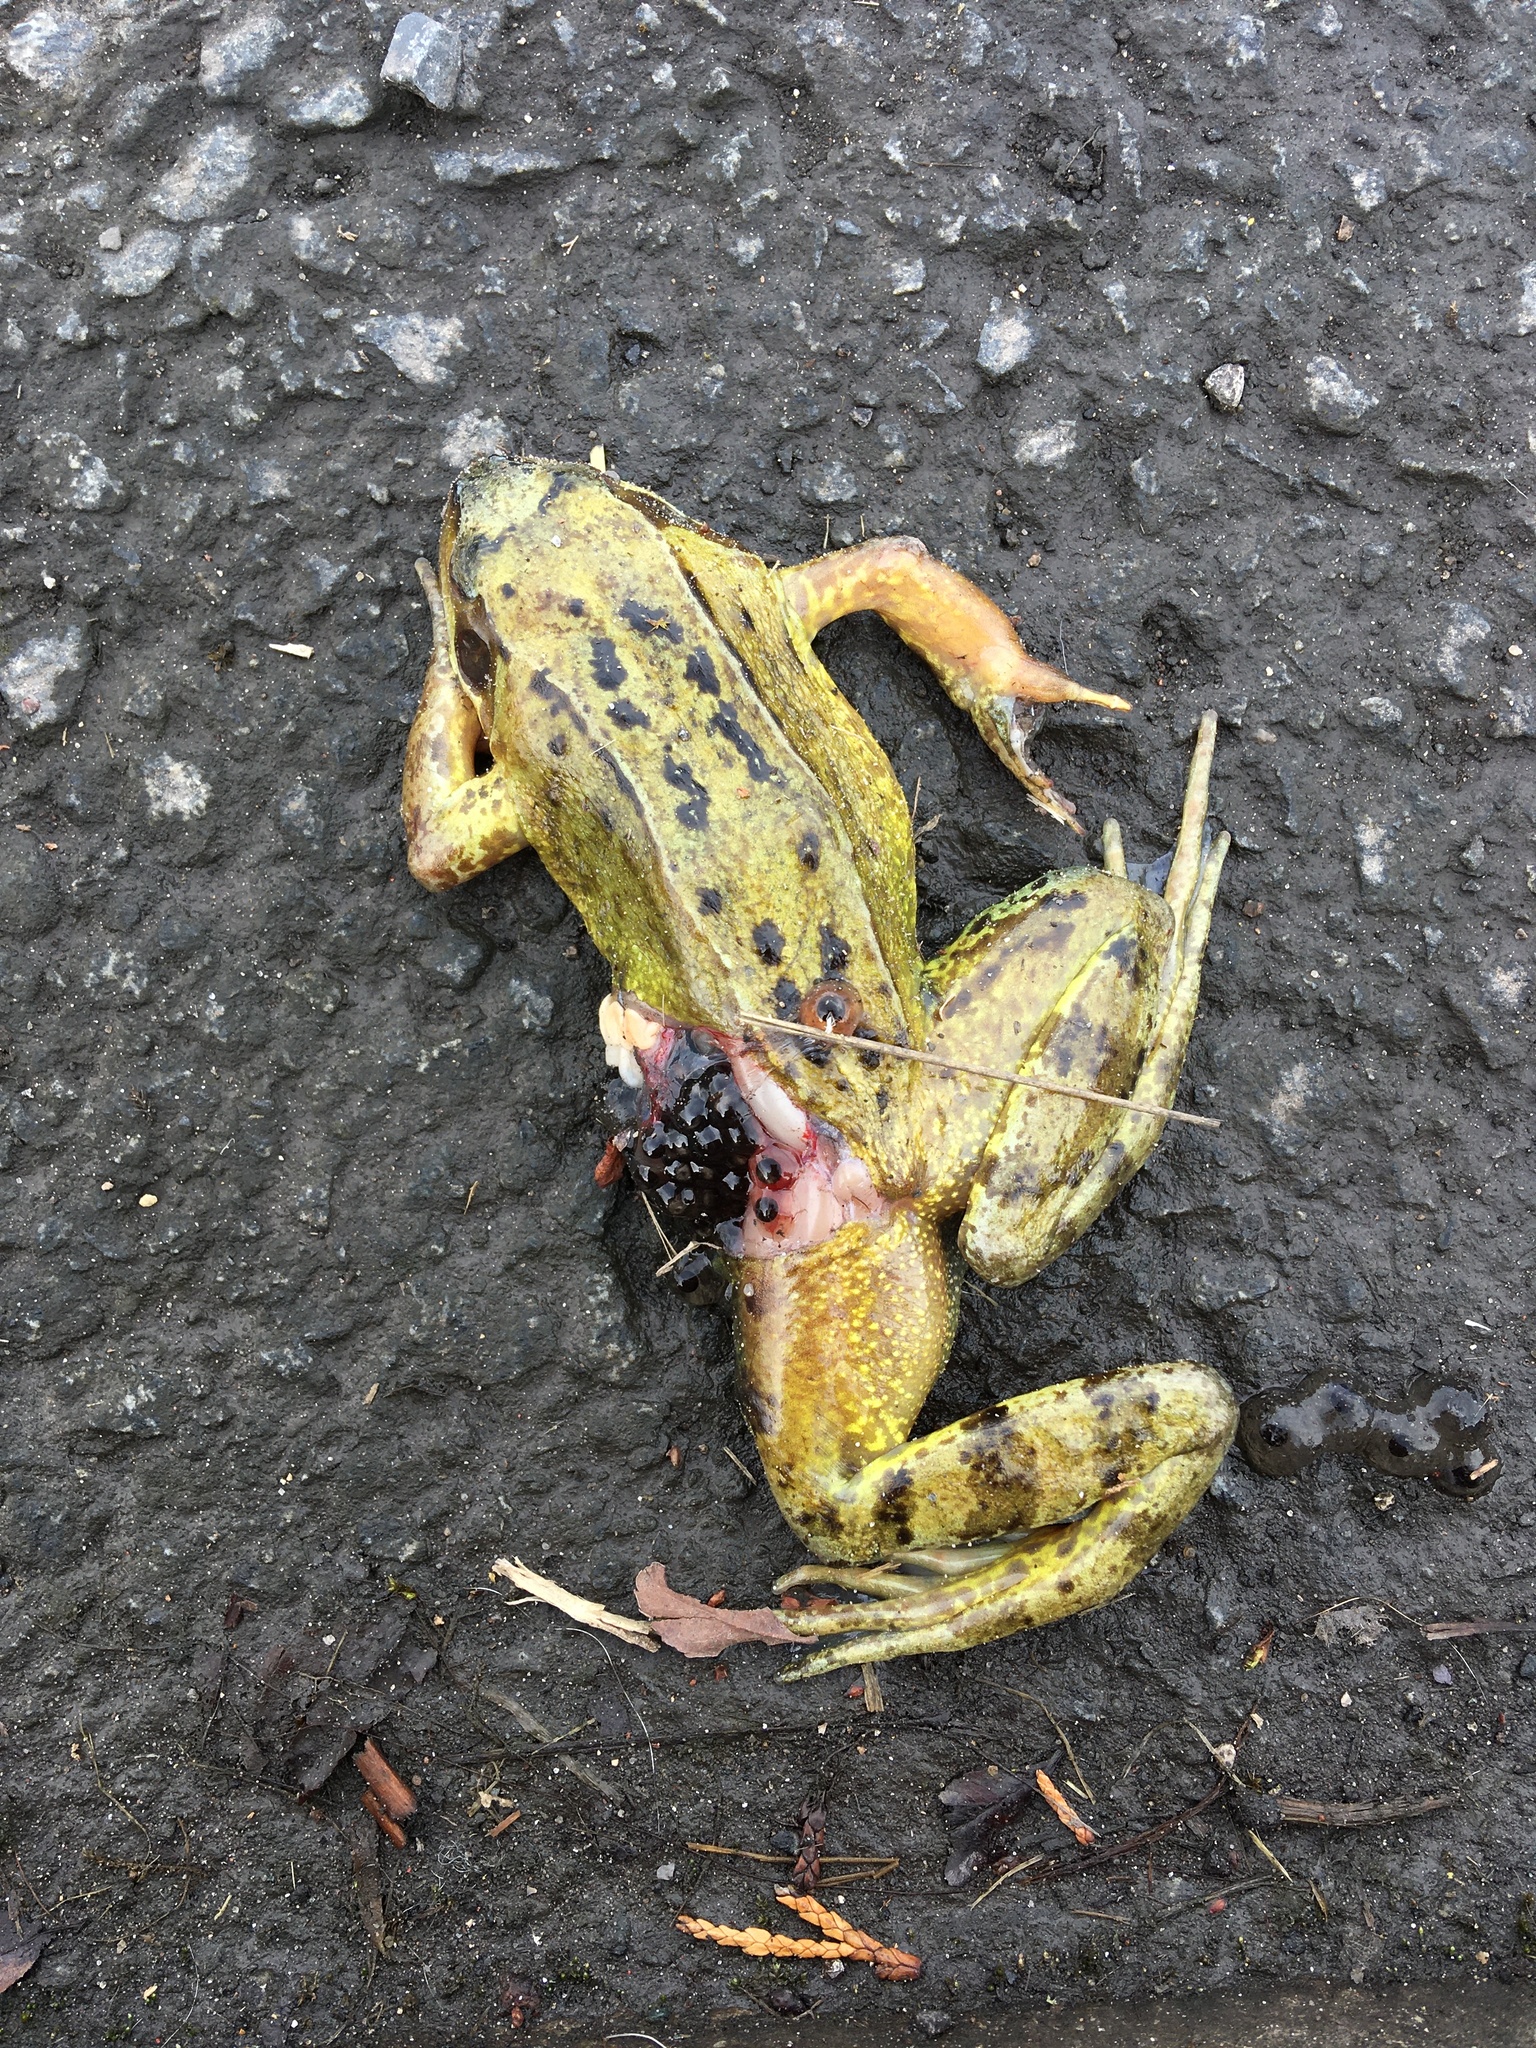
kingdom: Animalia
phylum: Chordata
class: Amphibia
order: Anura
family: Ranidae
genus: Rana
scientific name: Rana temporaria
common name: Common frog
